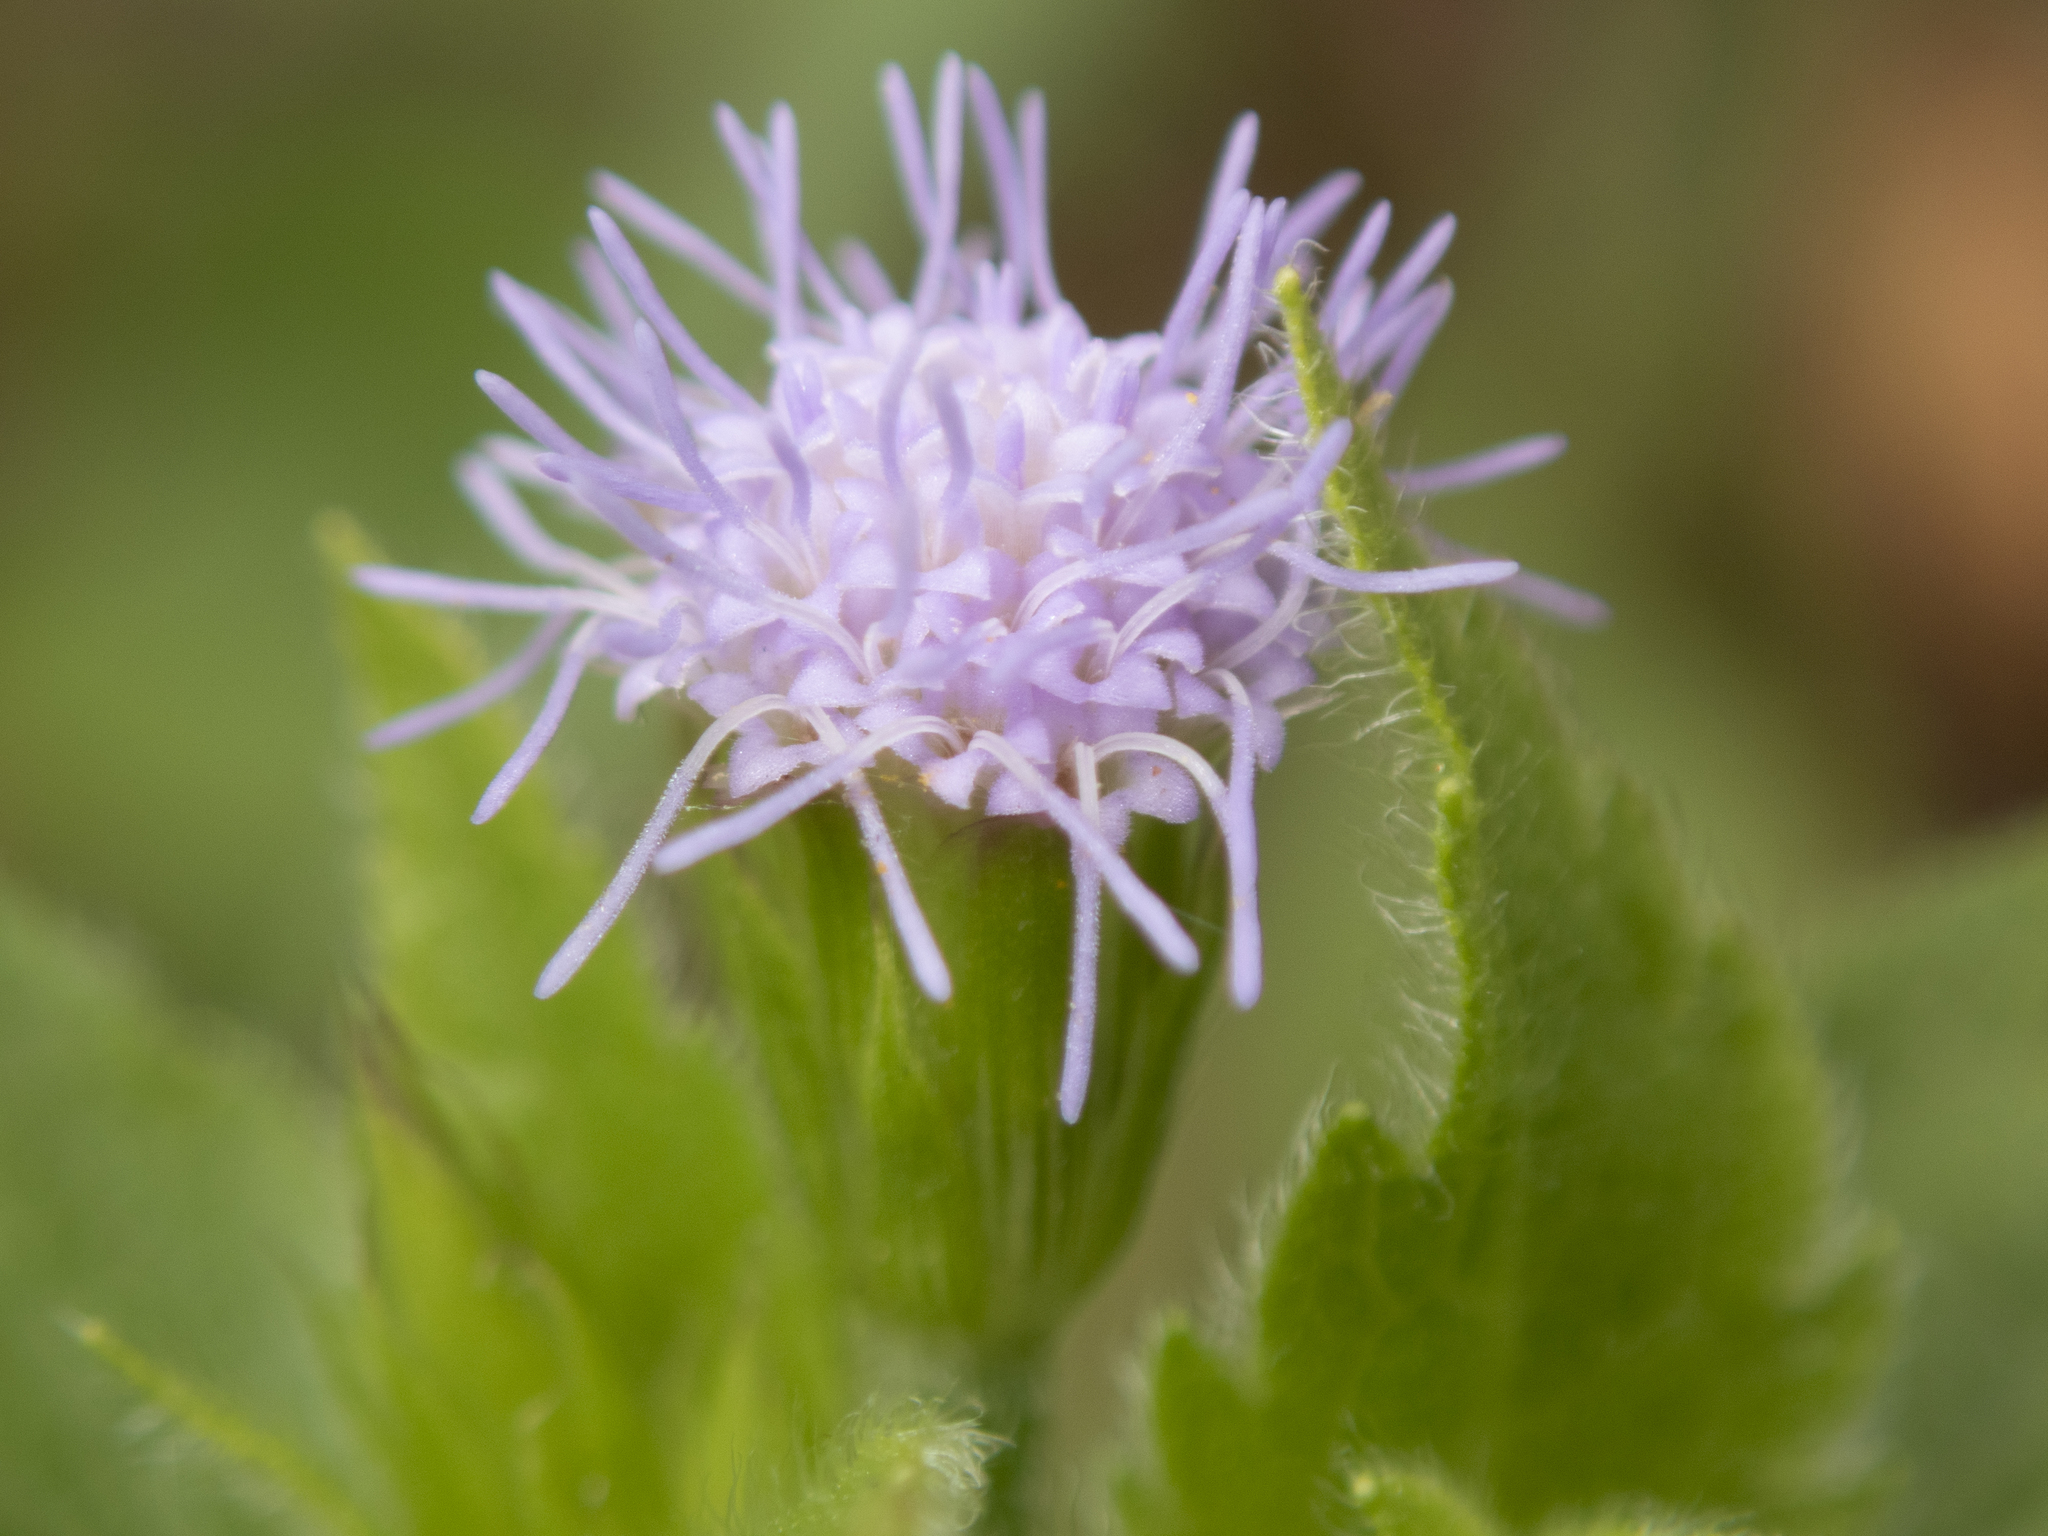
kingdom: Plantae
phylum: Tracheophyta
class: Magnoliopsida
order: Asterales
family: Asteraceae
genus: Praxelis
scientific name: Praxelis clematidea
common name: Praxelis
